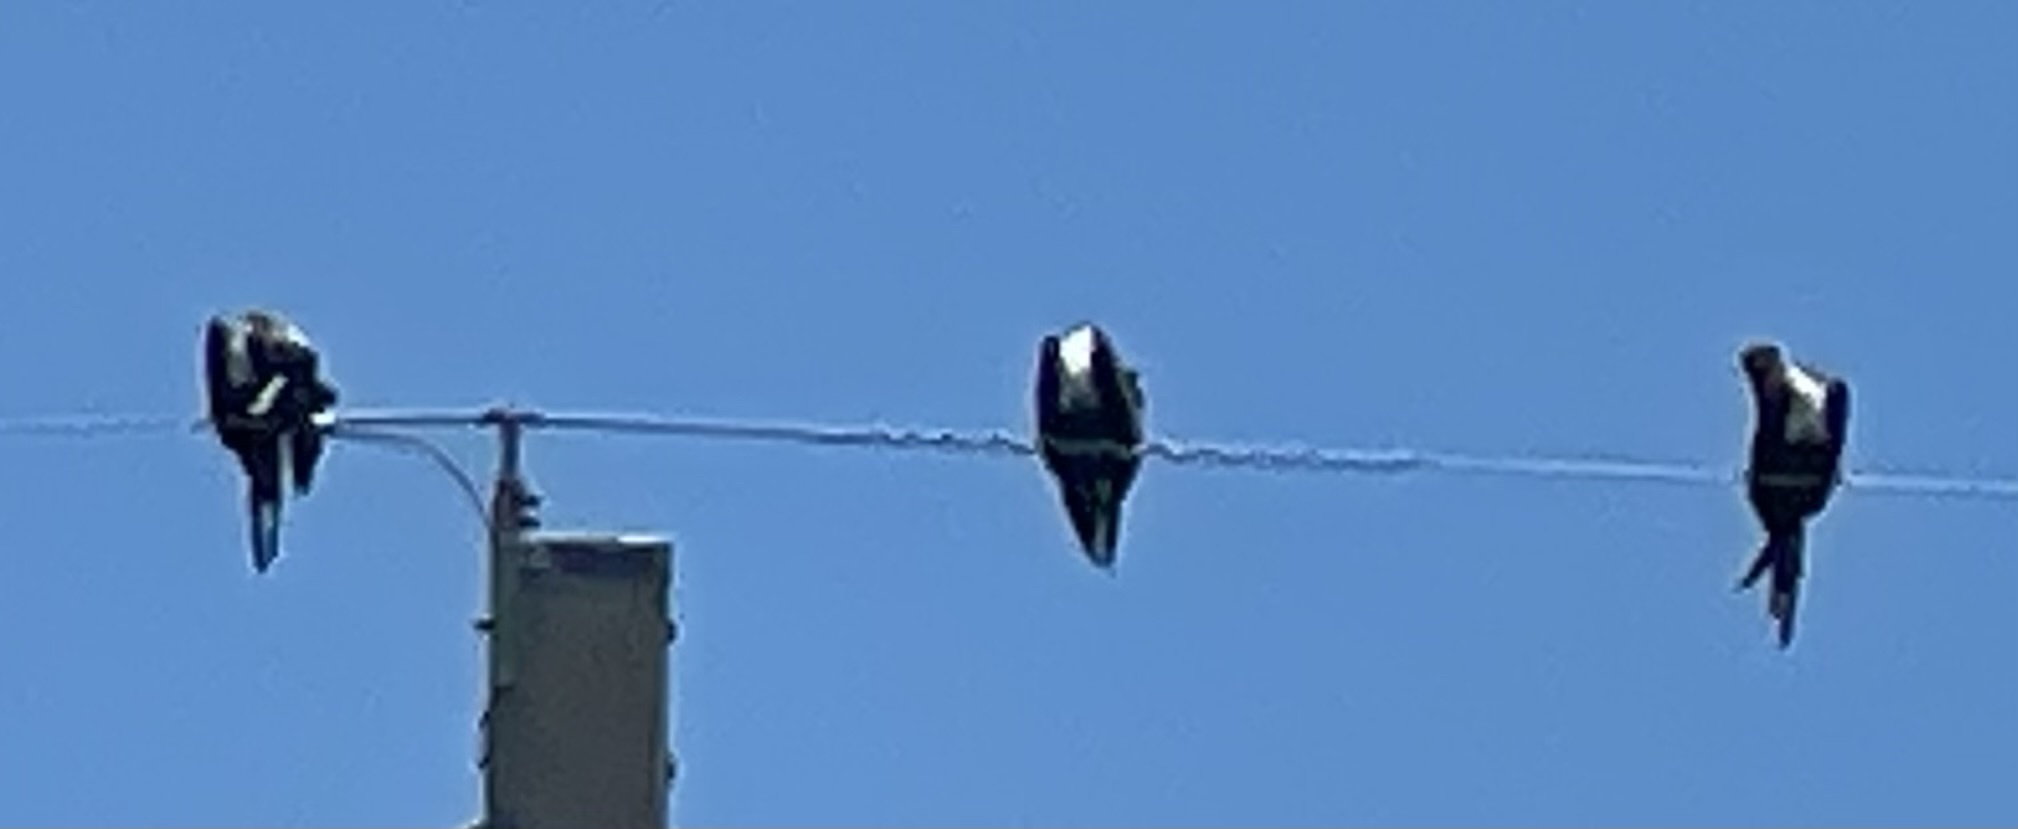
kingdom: Animalia
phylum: Chordata
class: Aves
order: Accipitriformes
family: Pandionidae
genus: Pandion
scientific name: Pandion haliaetus
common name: Osprey
